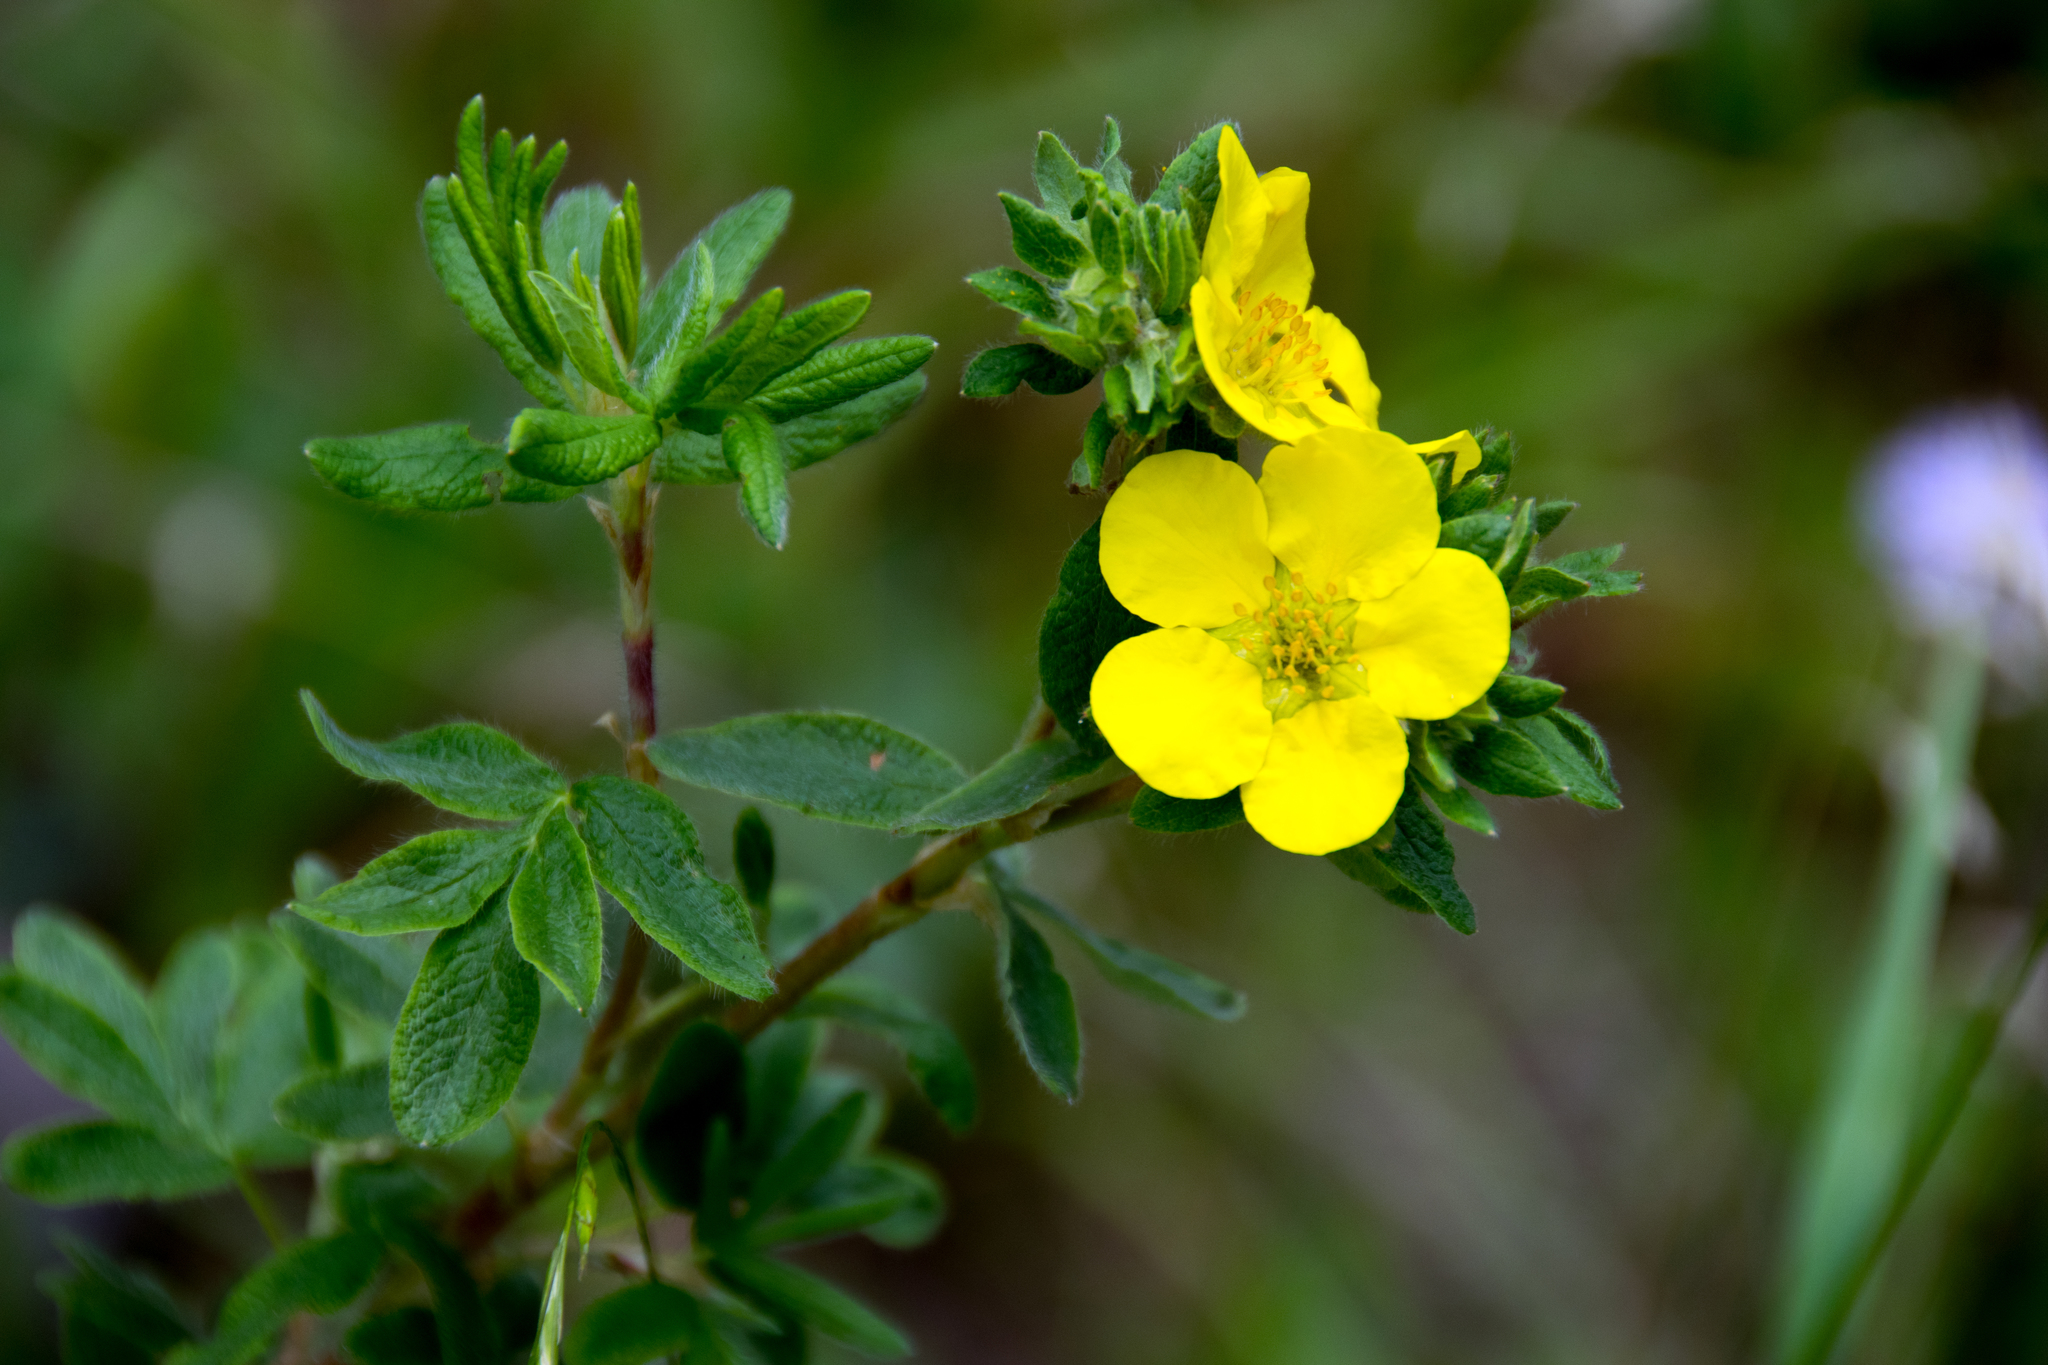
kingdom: Plantae
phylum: Tracheophyta
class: Magnoliopsida
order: Rosales
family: Rosaceae
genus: Dasiphora
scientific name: Dasiphora fruticosa
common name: Shrubby cinquefoil
